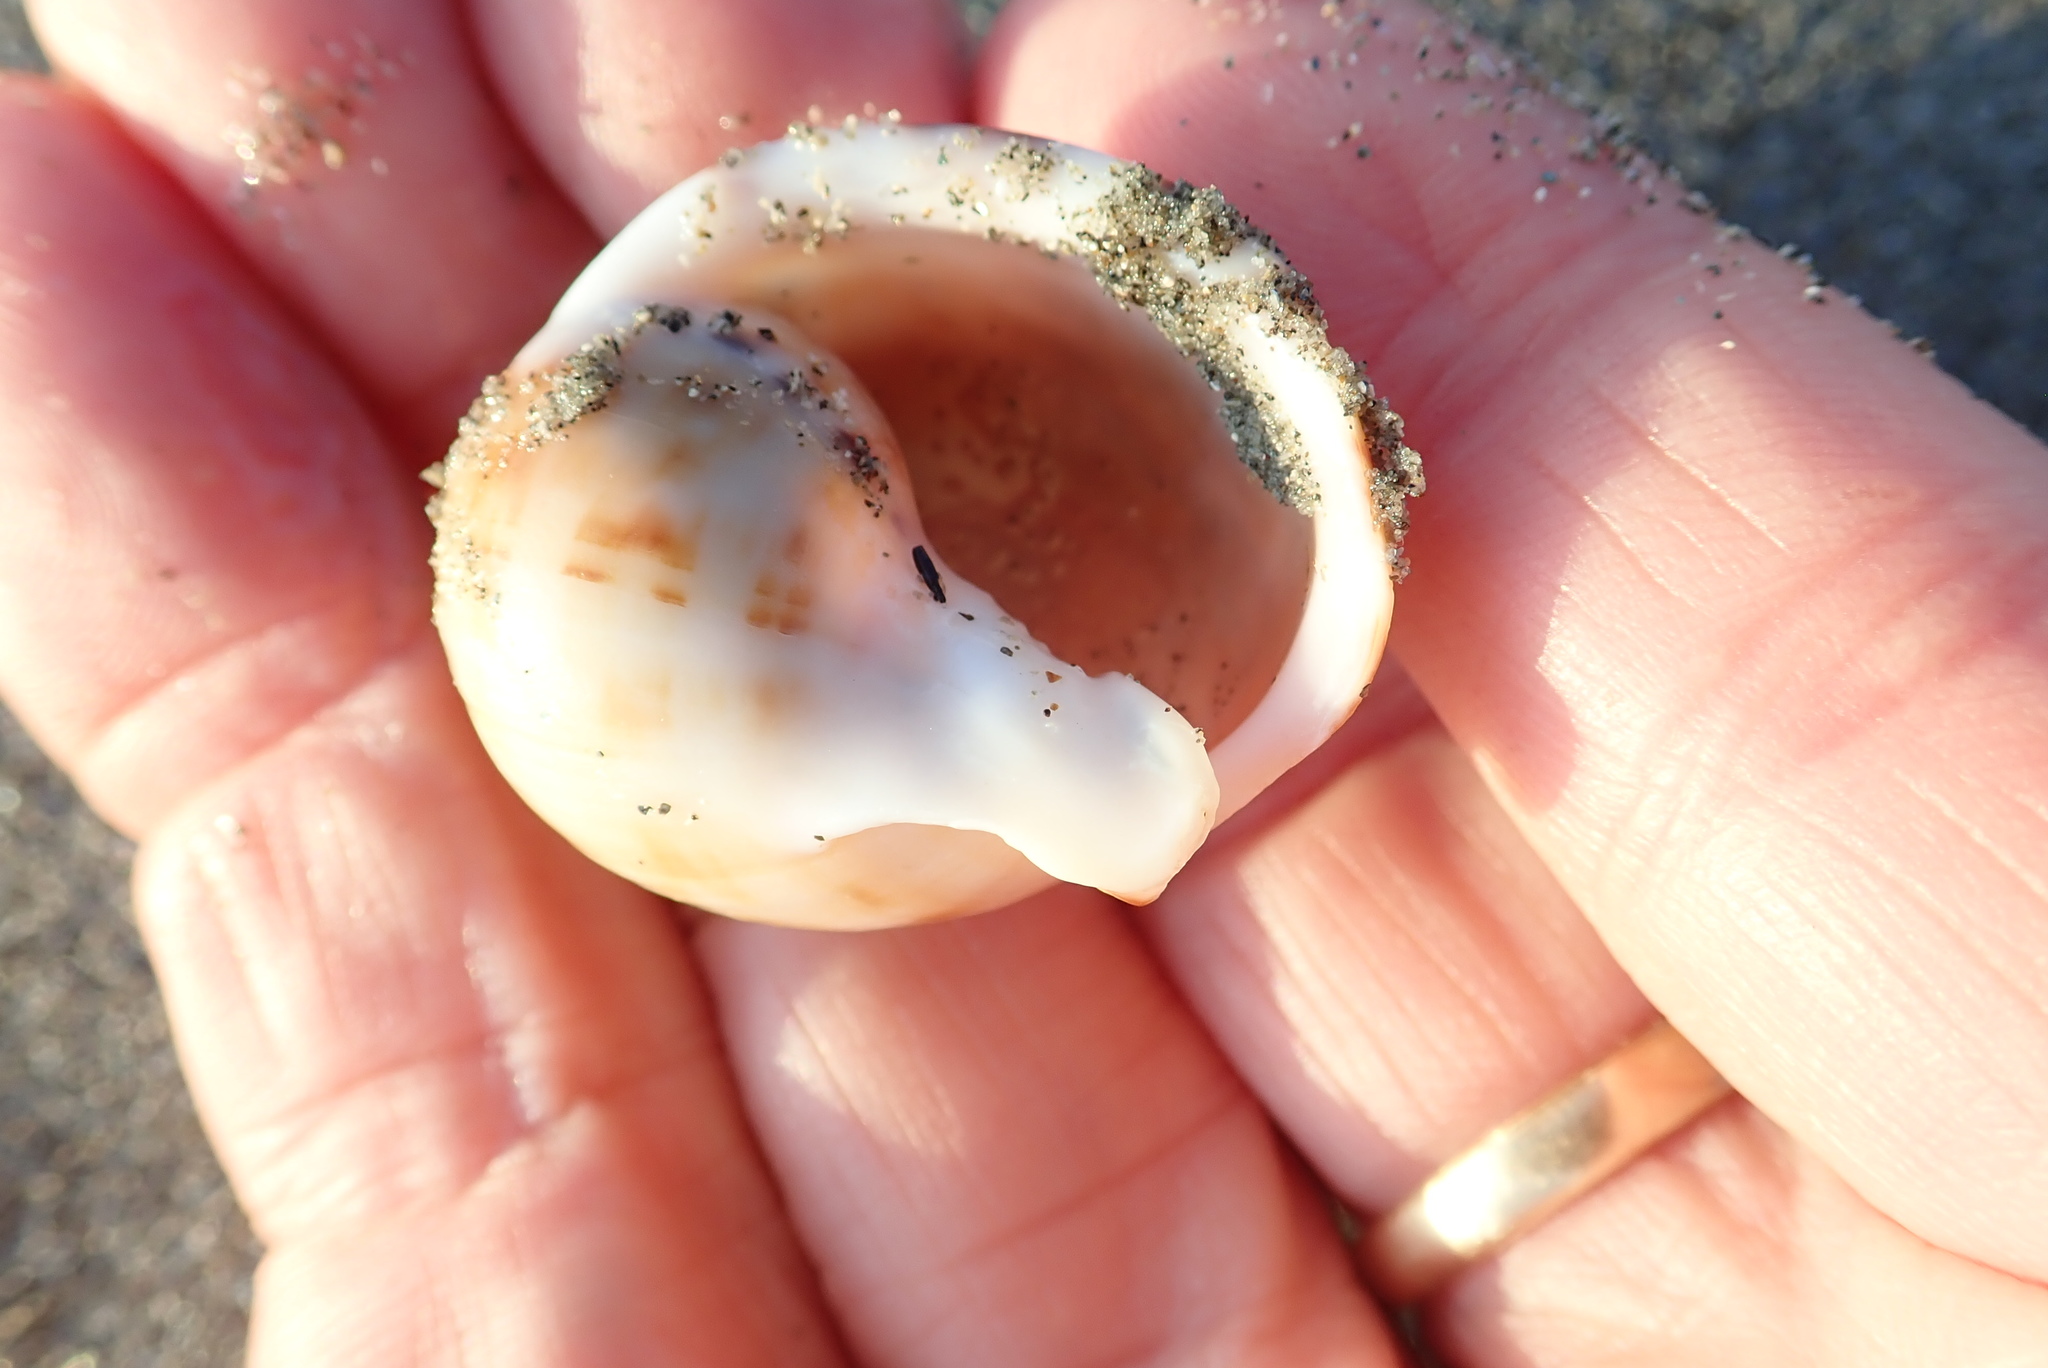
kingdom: Animalia
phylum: Mollusca
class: Gastropoda
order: Littorinimorpha
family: Cassidae
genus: Semicassis
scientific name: Semicassis pyrum
